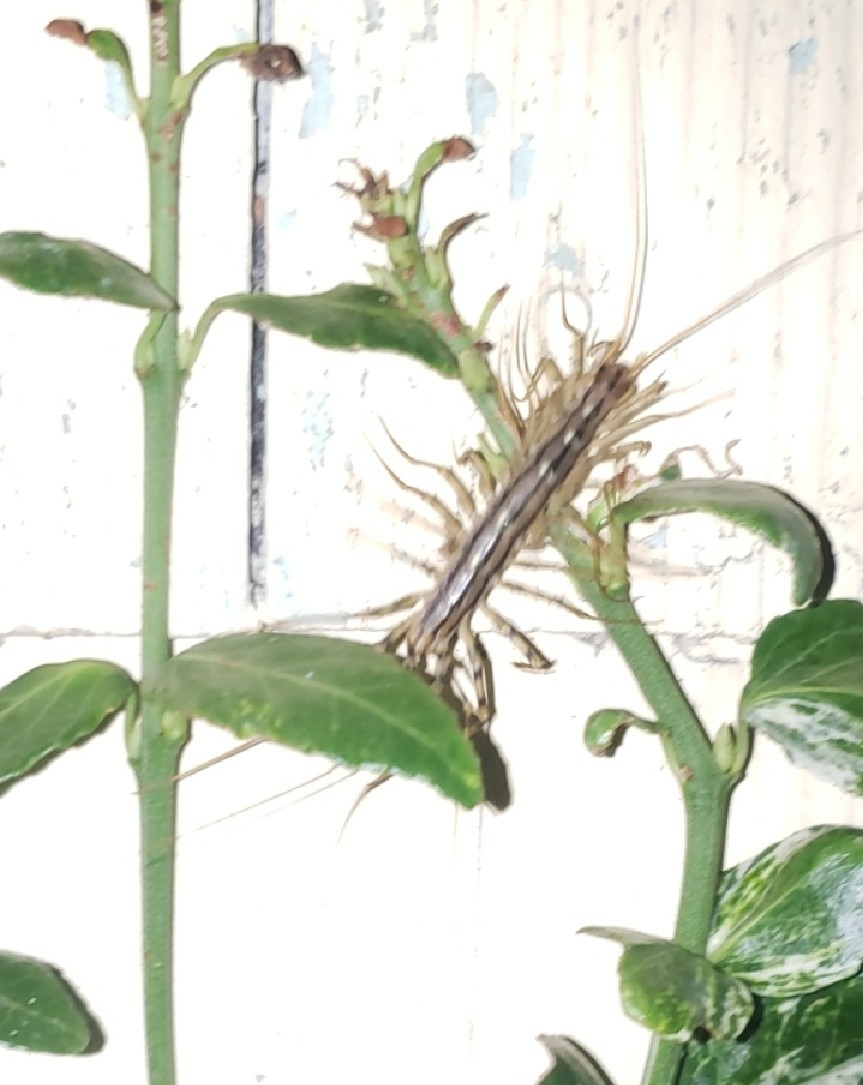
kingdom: Animalia
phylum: Arthropoda
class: Chilopoda
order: Scutigeromorpha
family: Scutigeridae
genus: Scutigera
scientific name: Scutigera coleoptrata
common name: House centipede
